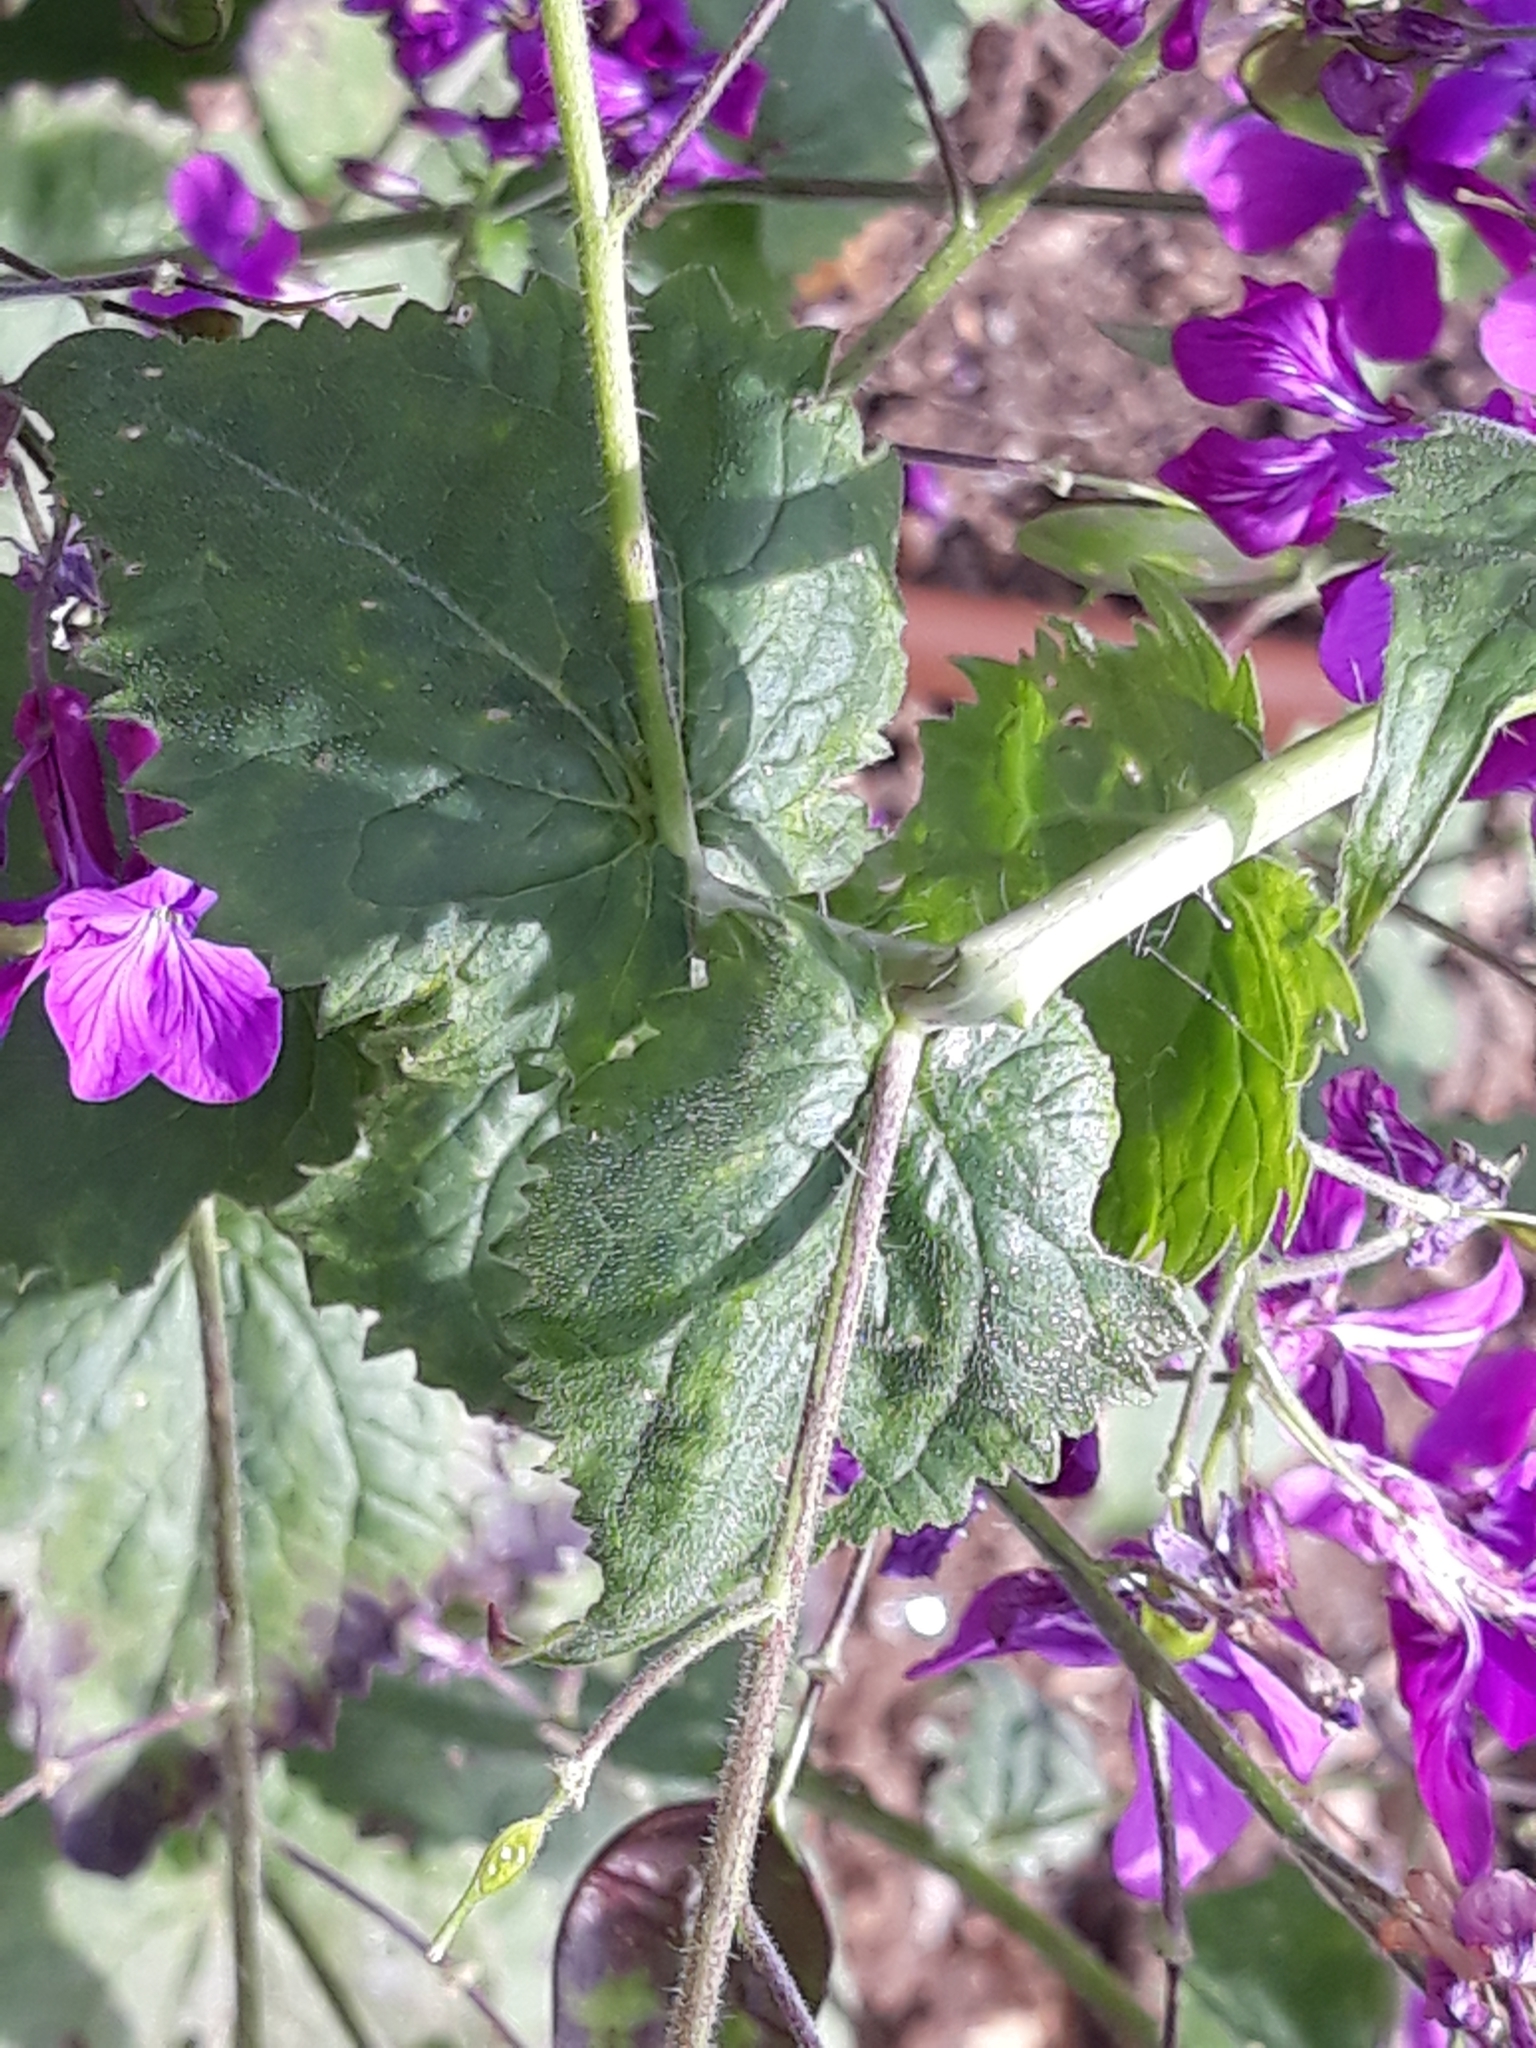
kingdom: Plantae
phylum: Tracheophyta
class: Magnoliopsida
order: Brassicales
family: Brassicaceae
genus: Lunaria
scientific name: Lunaria annua
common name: Honesty
